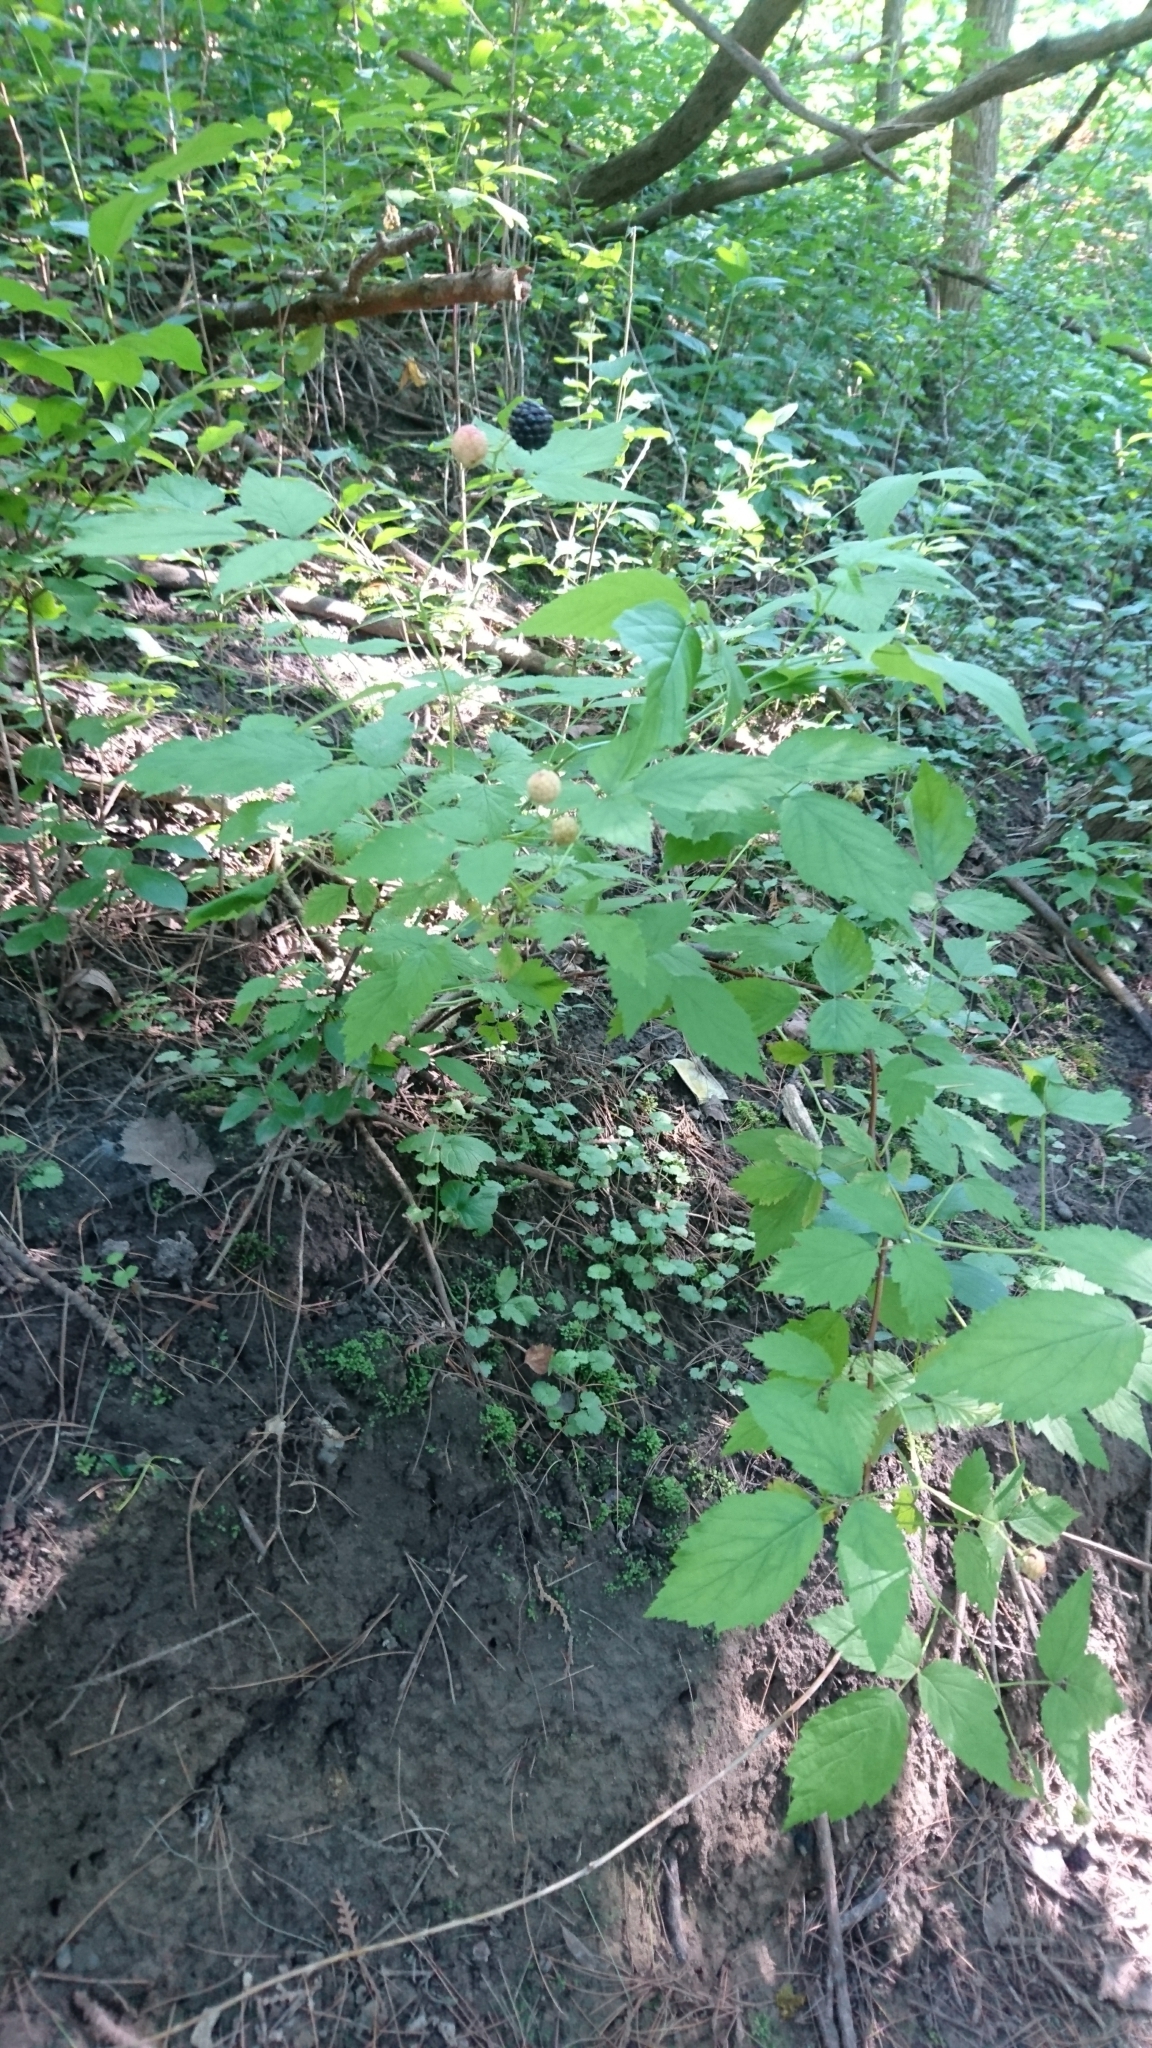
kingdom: Plantae
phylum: Tracheophyta
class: Magnoliopsida
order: Rosales
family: Rosaceae
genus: Rubus
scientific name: Rubus occidentalis
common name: Black raspberry
